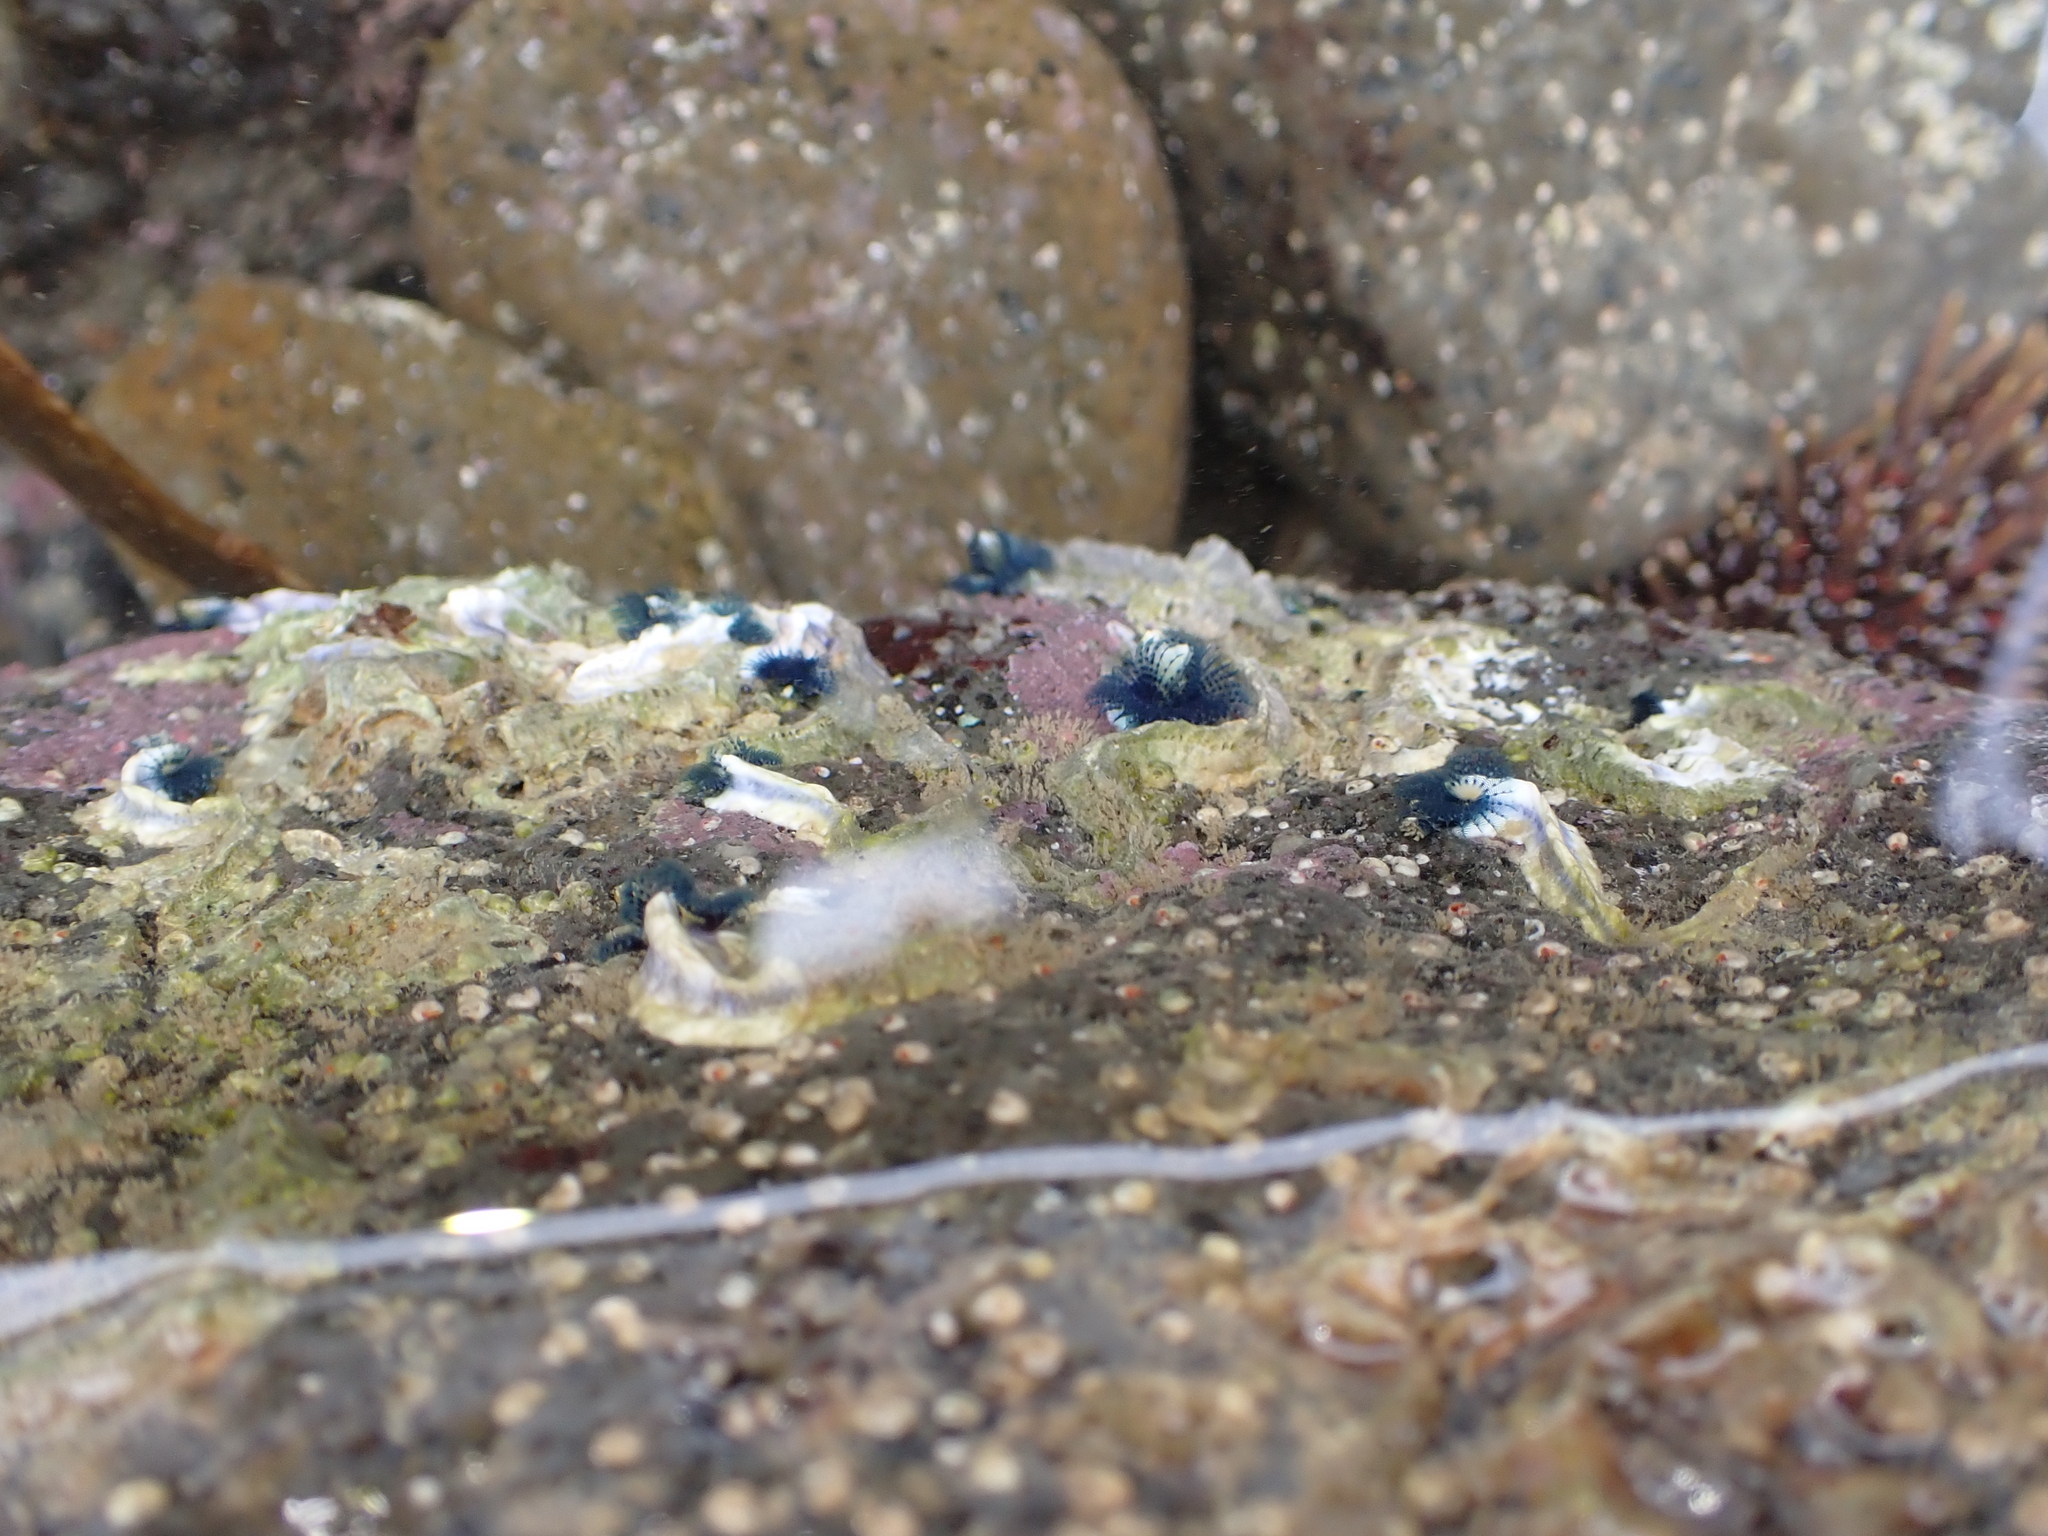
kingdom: Animalia
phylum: Annelida
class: Polychaeta
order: Sabellida
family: Serpulidae
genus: Spirobranchus
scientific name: Spirobranchus cariniferus
